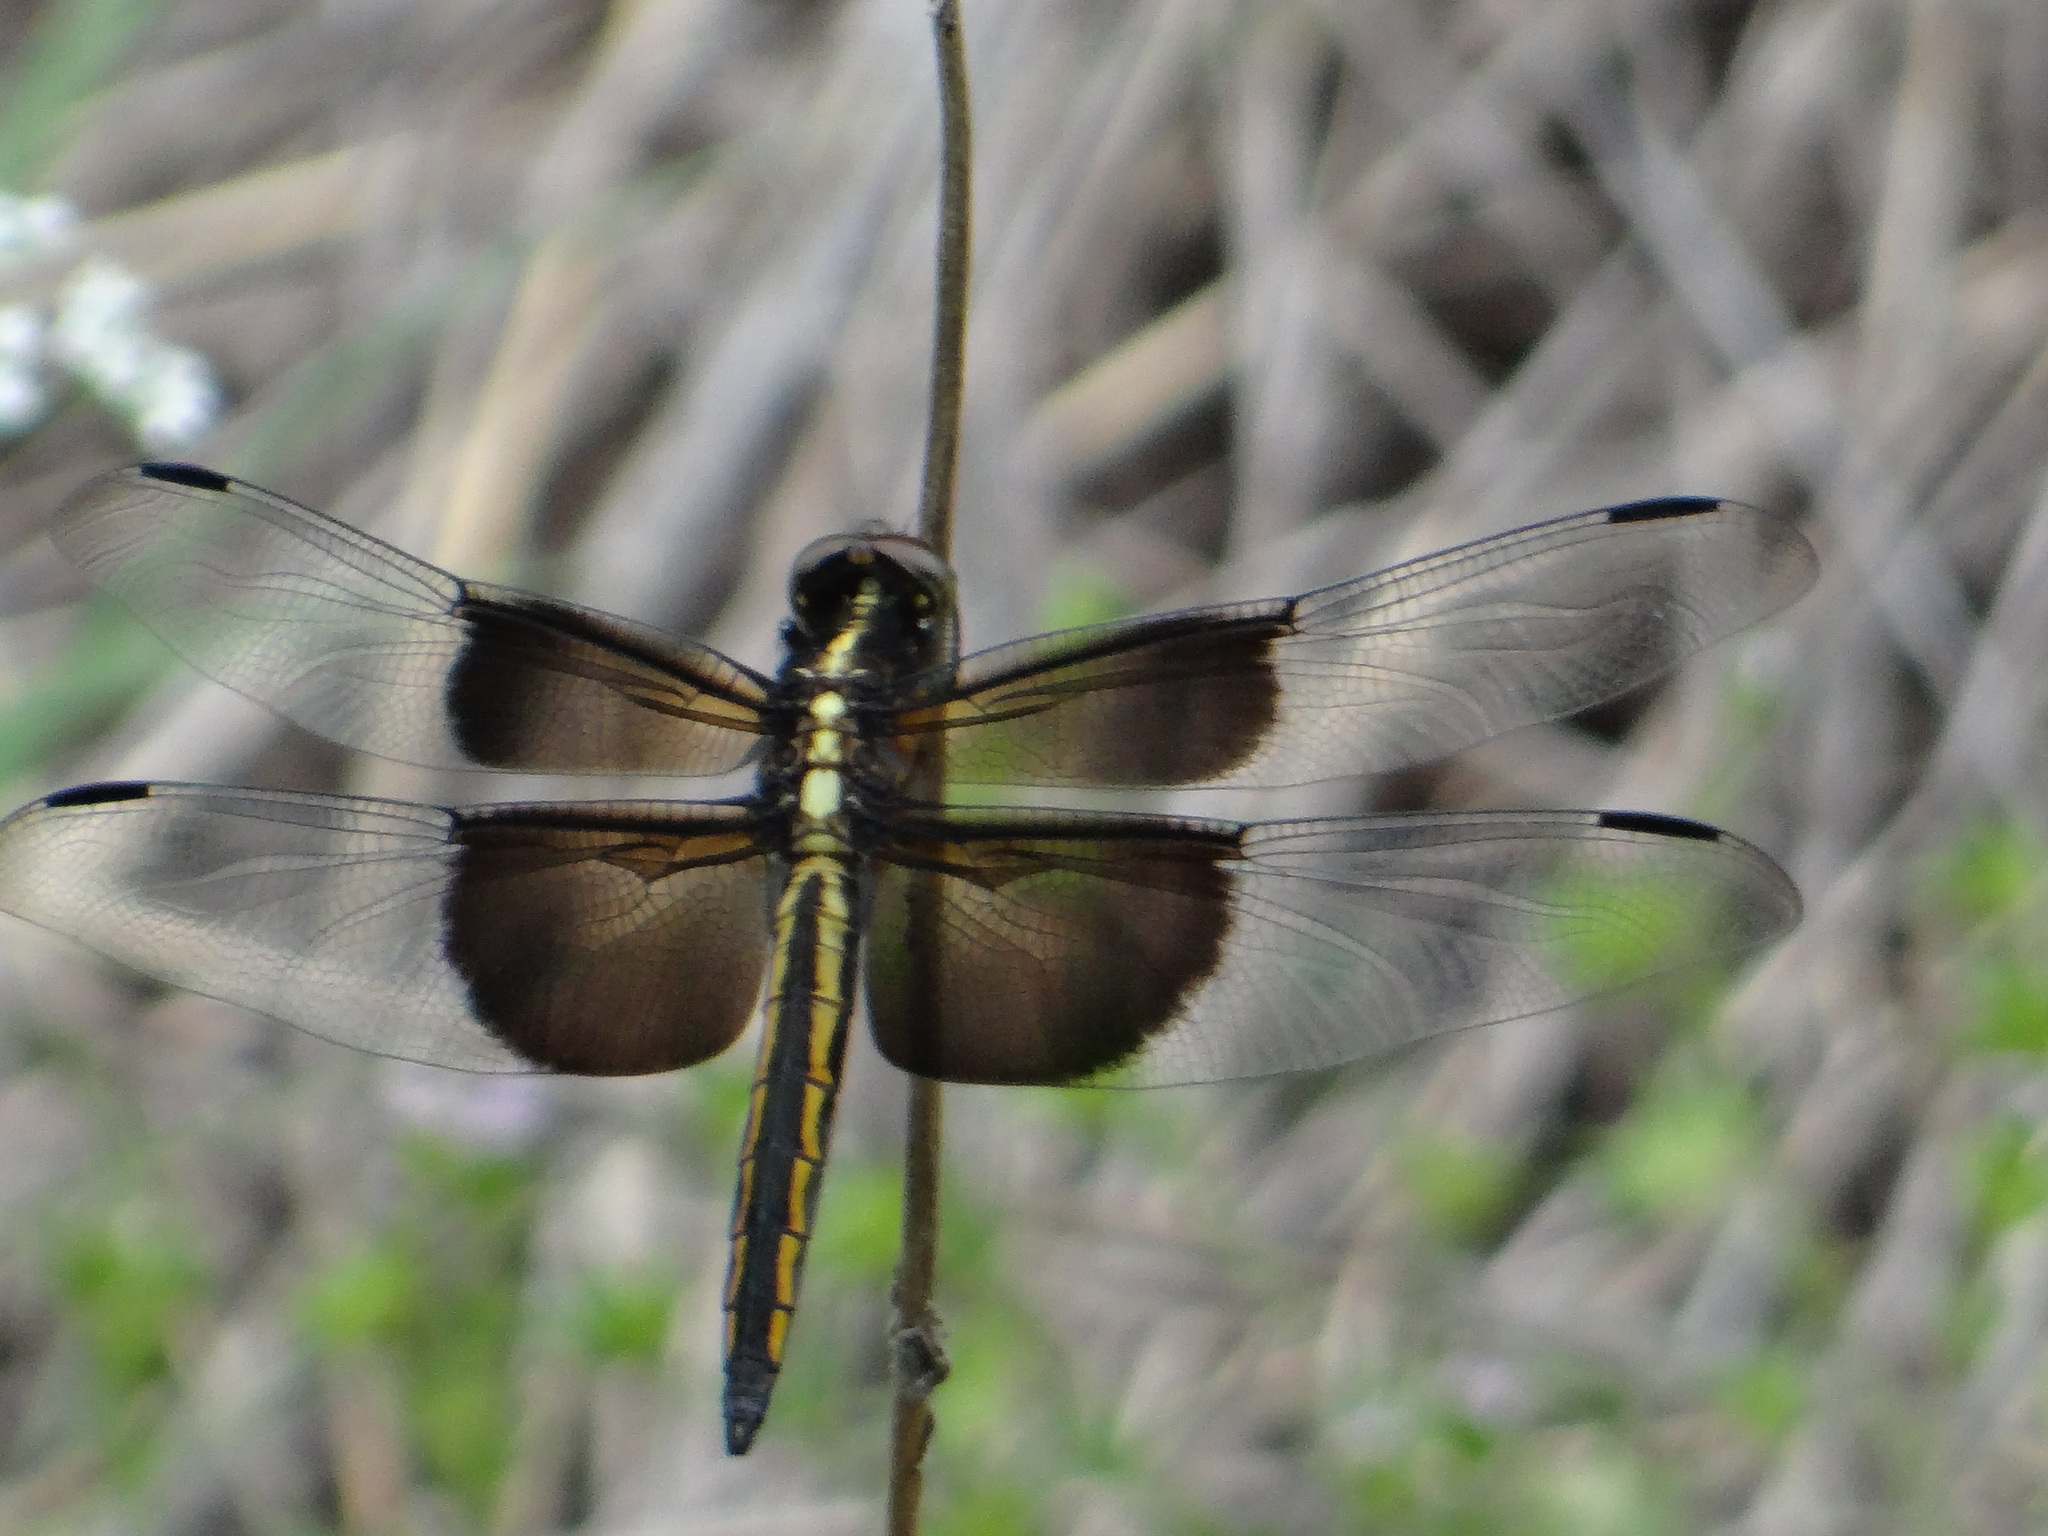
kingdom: Animalia
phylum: Arthropoda
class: Insecta
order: Odonata
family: Libellulidae
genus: Libellula
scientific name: Libellula luctuosa
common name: Widow skimmer
